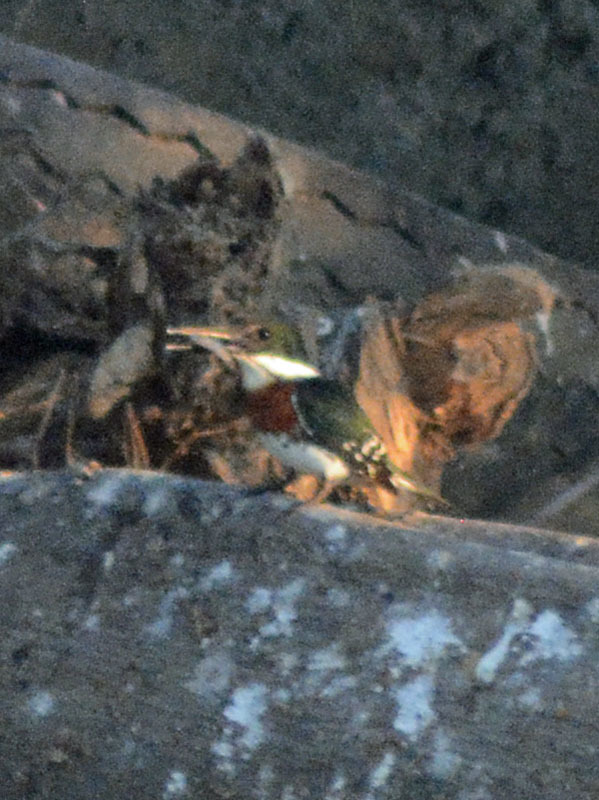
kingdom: Animalia
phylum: Chordata
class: Aves
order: Coraciiformes
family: Alcedinidae
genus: Chloroceryle
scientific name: Chloroceryle americana
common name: Green kingfisher
